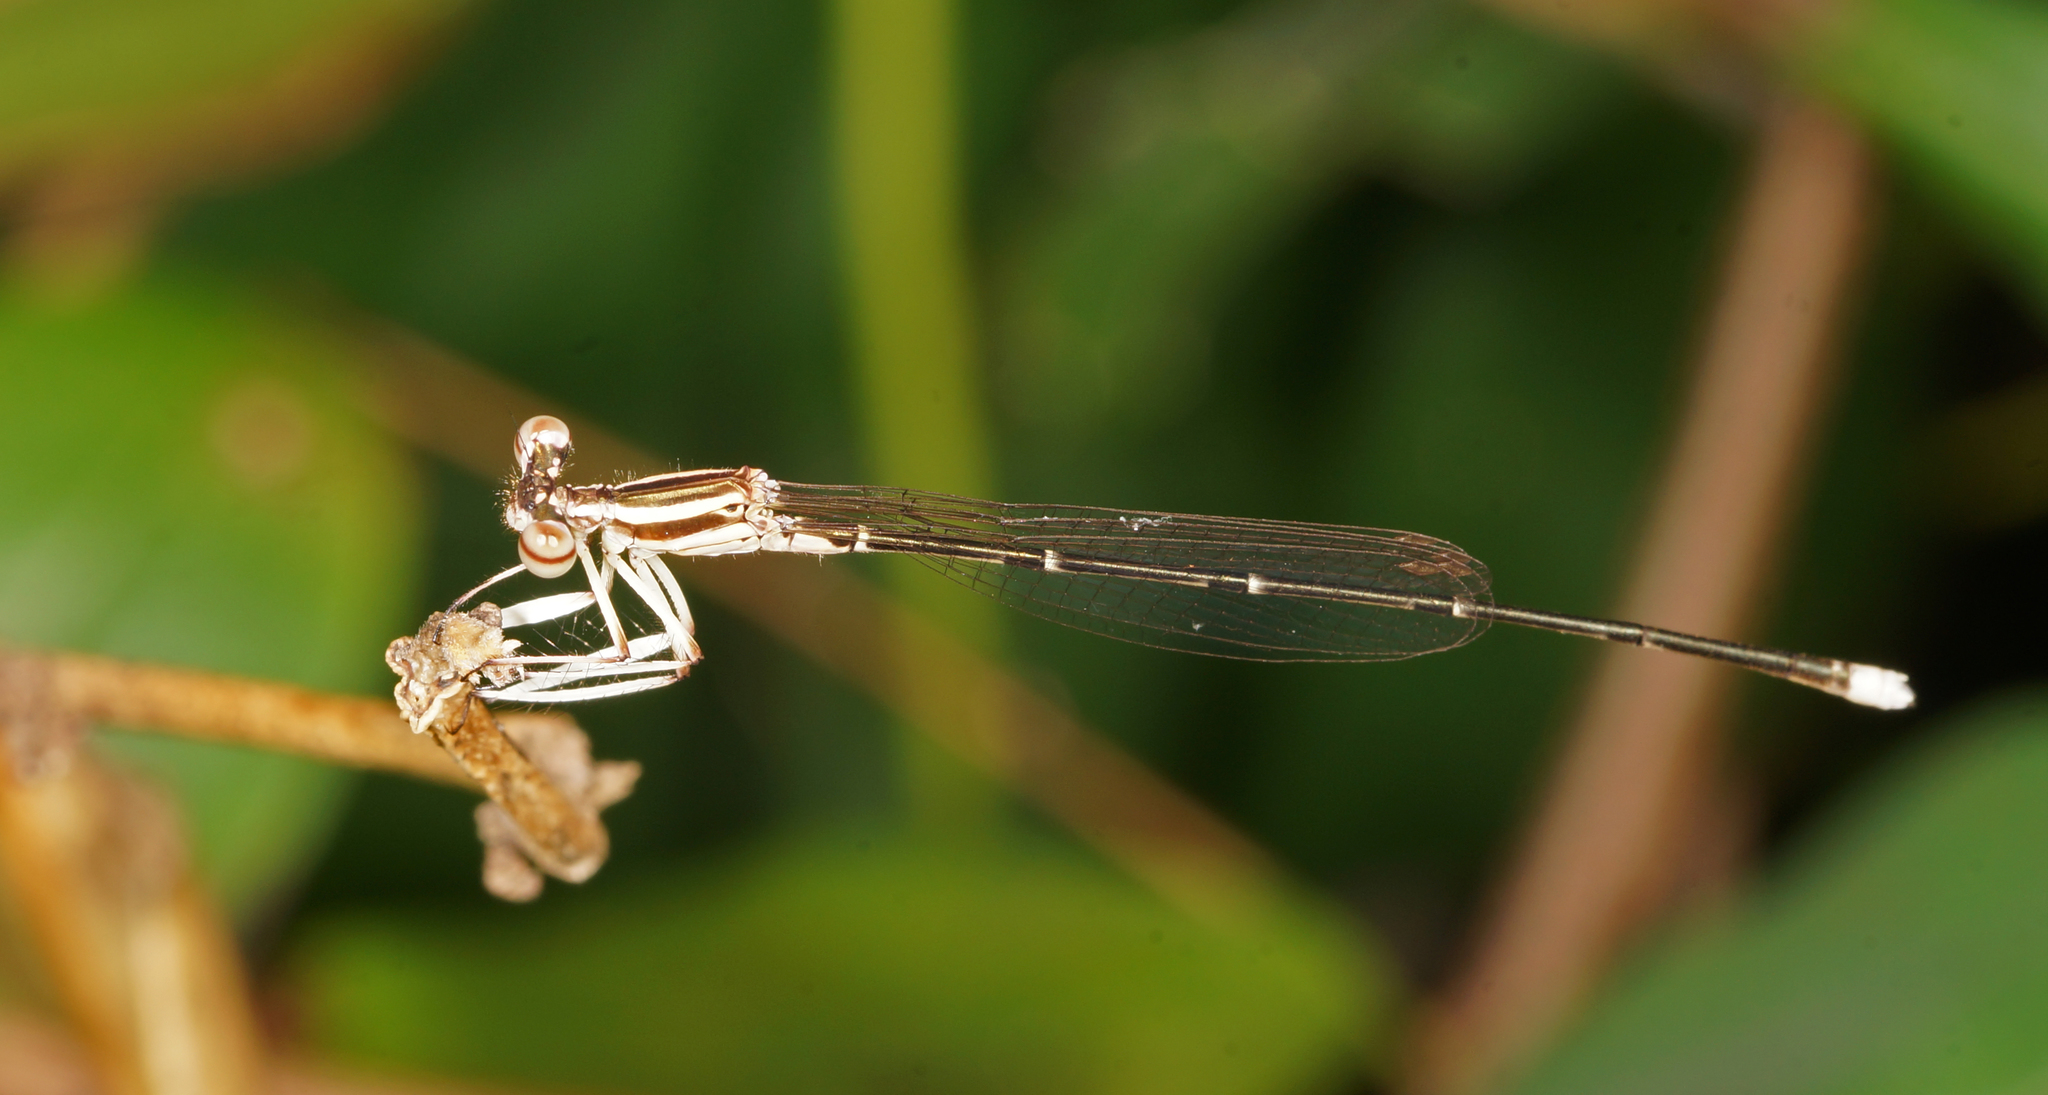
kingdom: Animalia
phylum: Arthropoda
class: Insecta
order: Odonata
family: Platycnemididae
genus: Pseudocopera
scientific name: Pseudocopera ciliata
